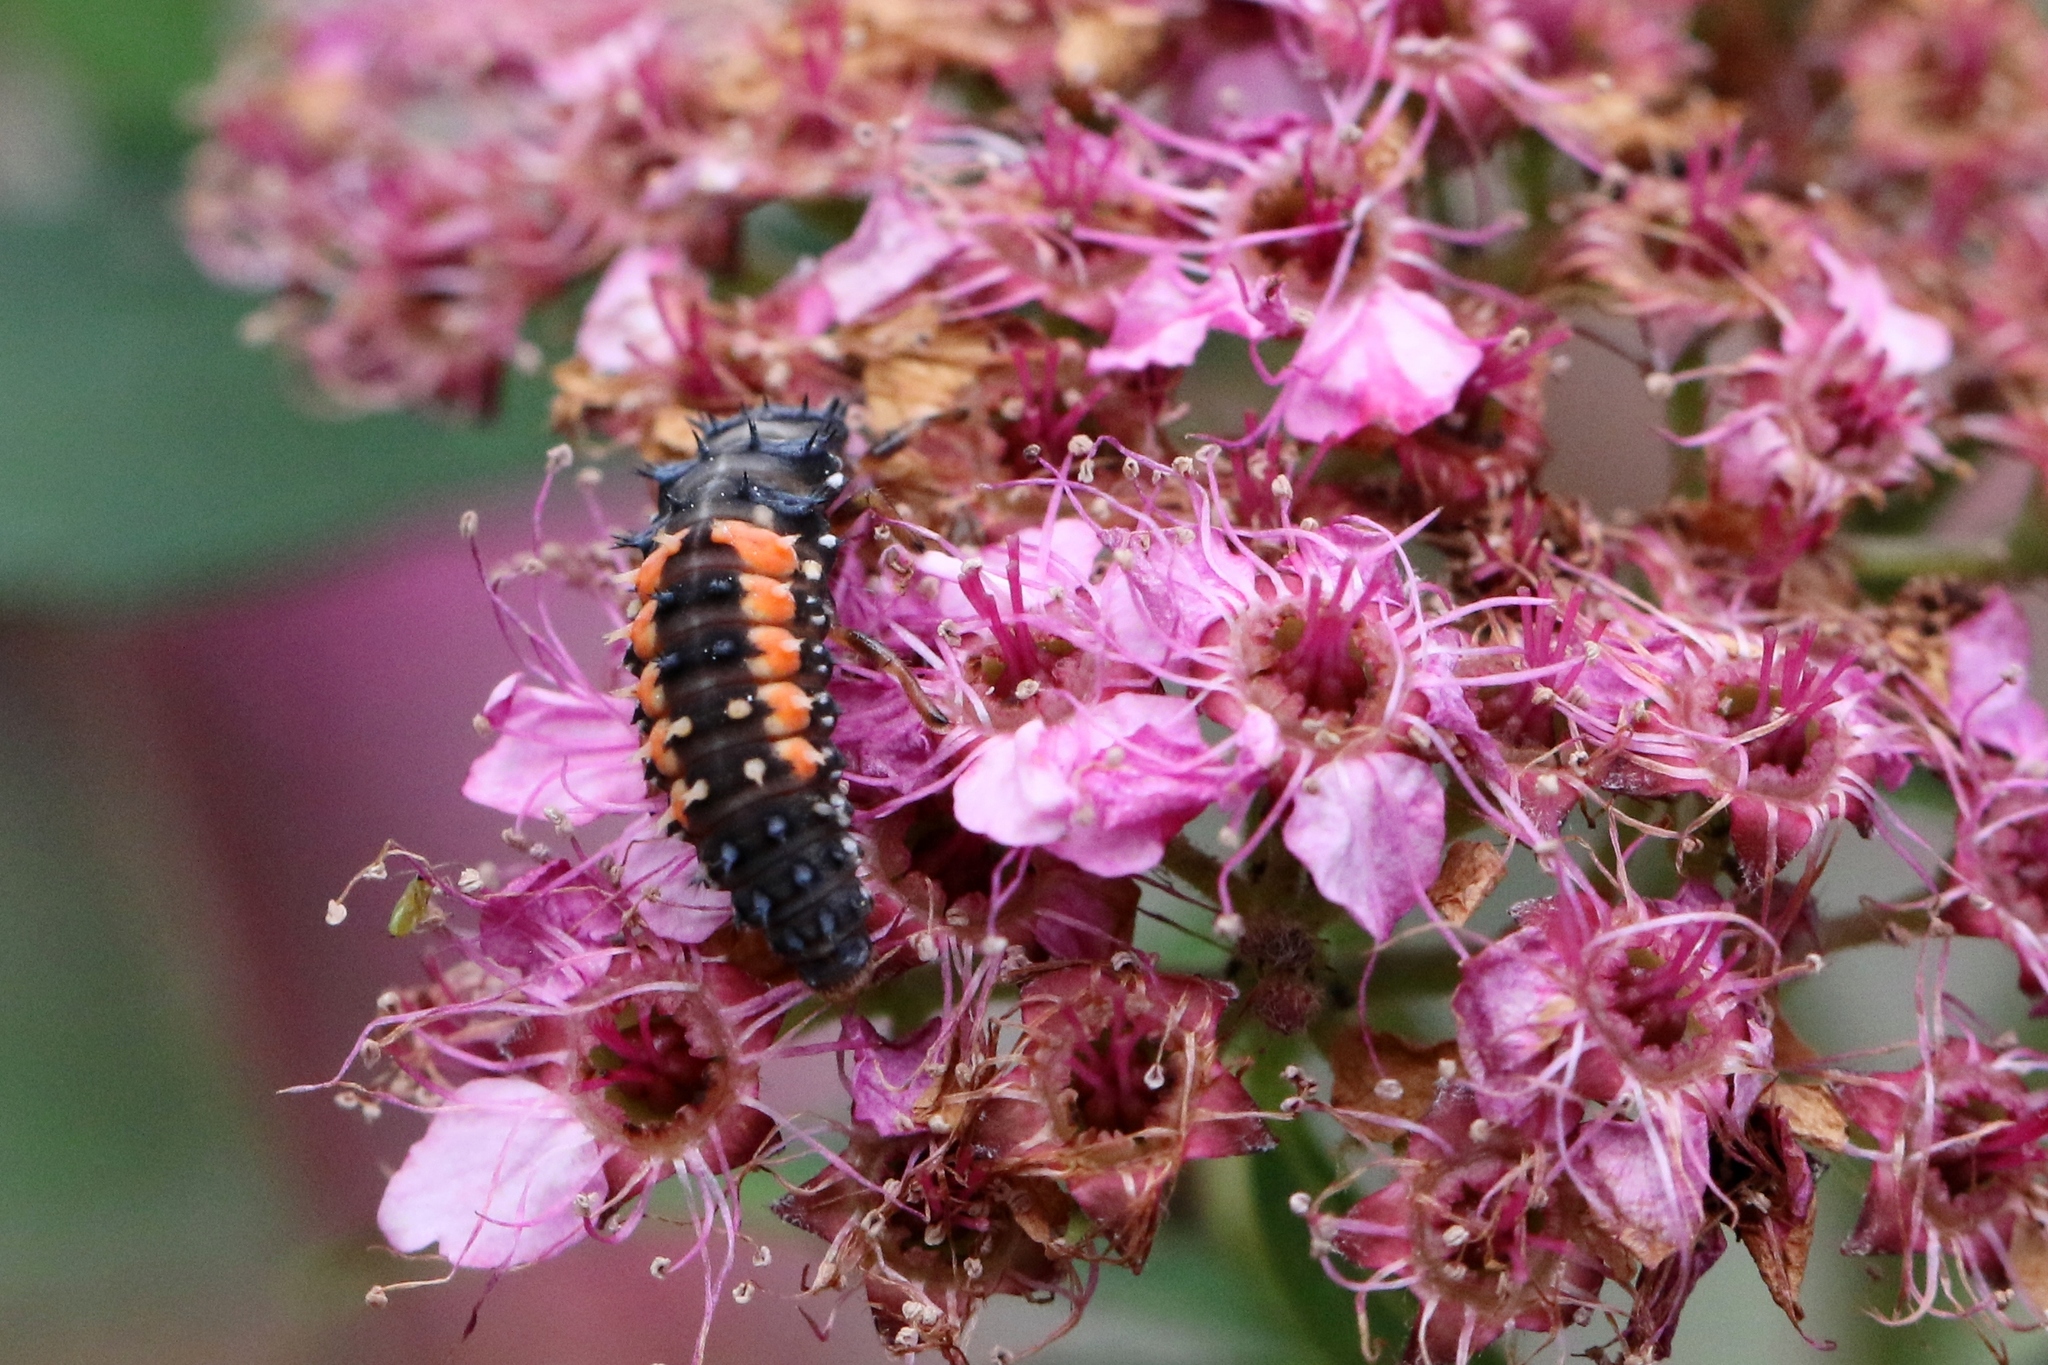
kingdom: Animalia
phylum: Arthropoda
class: Insecta
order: Coleoptera
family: Coccinellidae
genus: Harmonia
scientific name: Harmonia axyridis
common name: Harlequin ladybird
